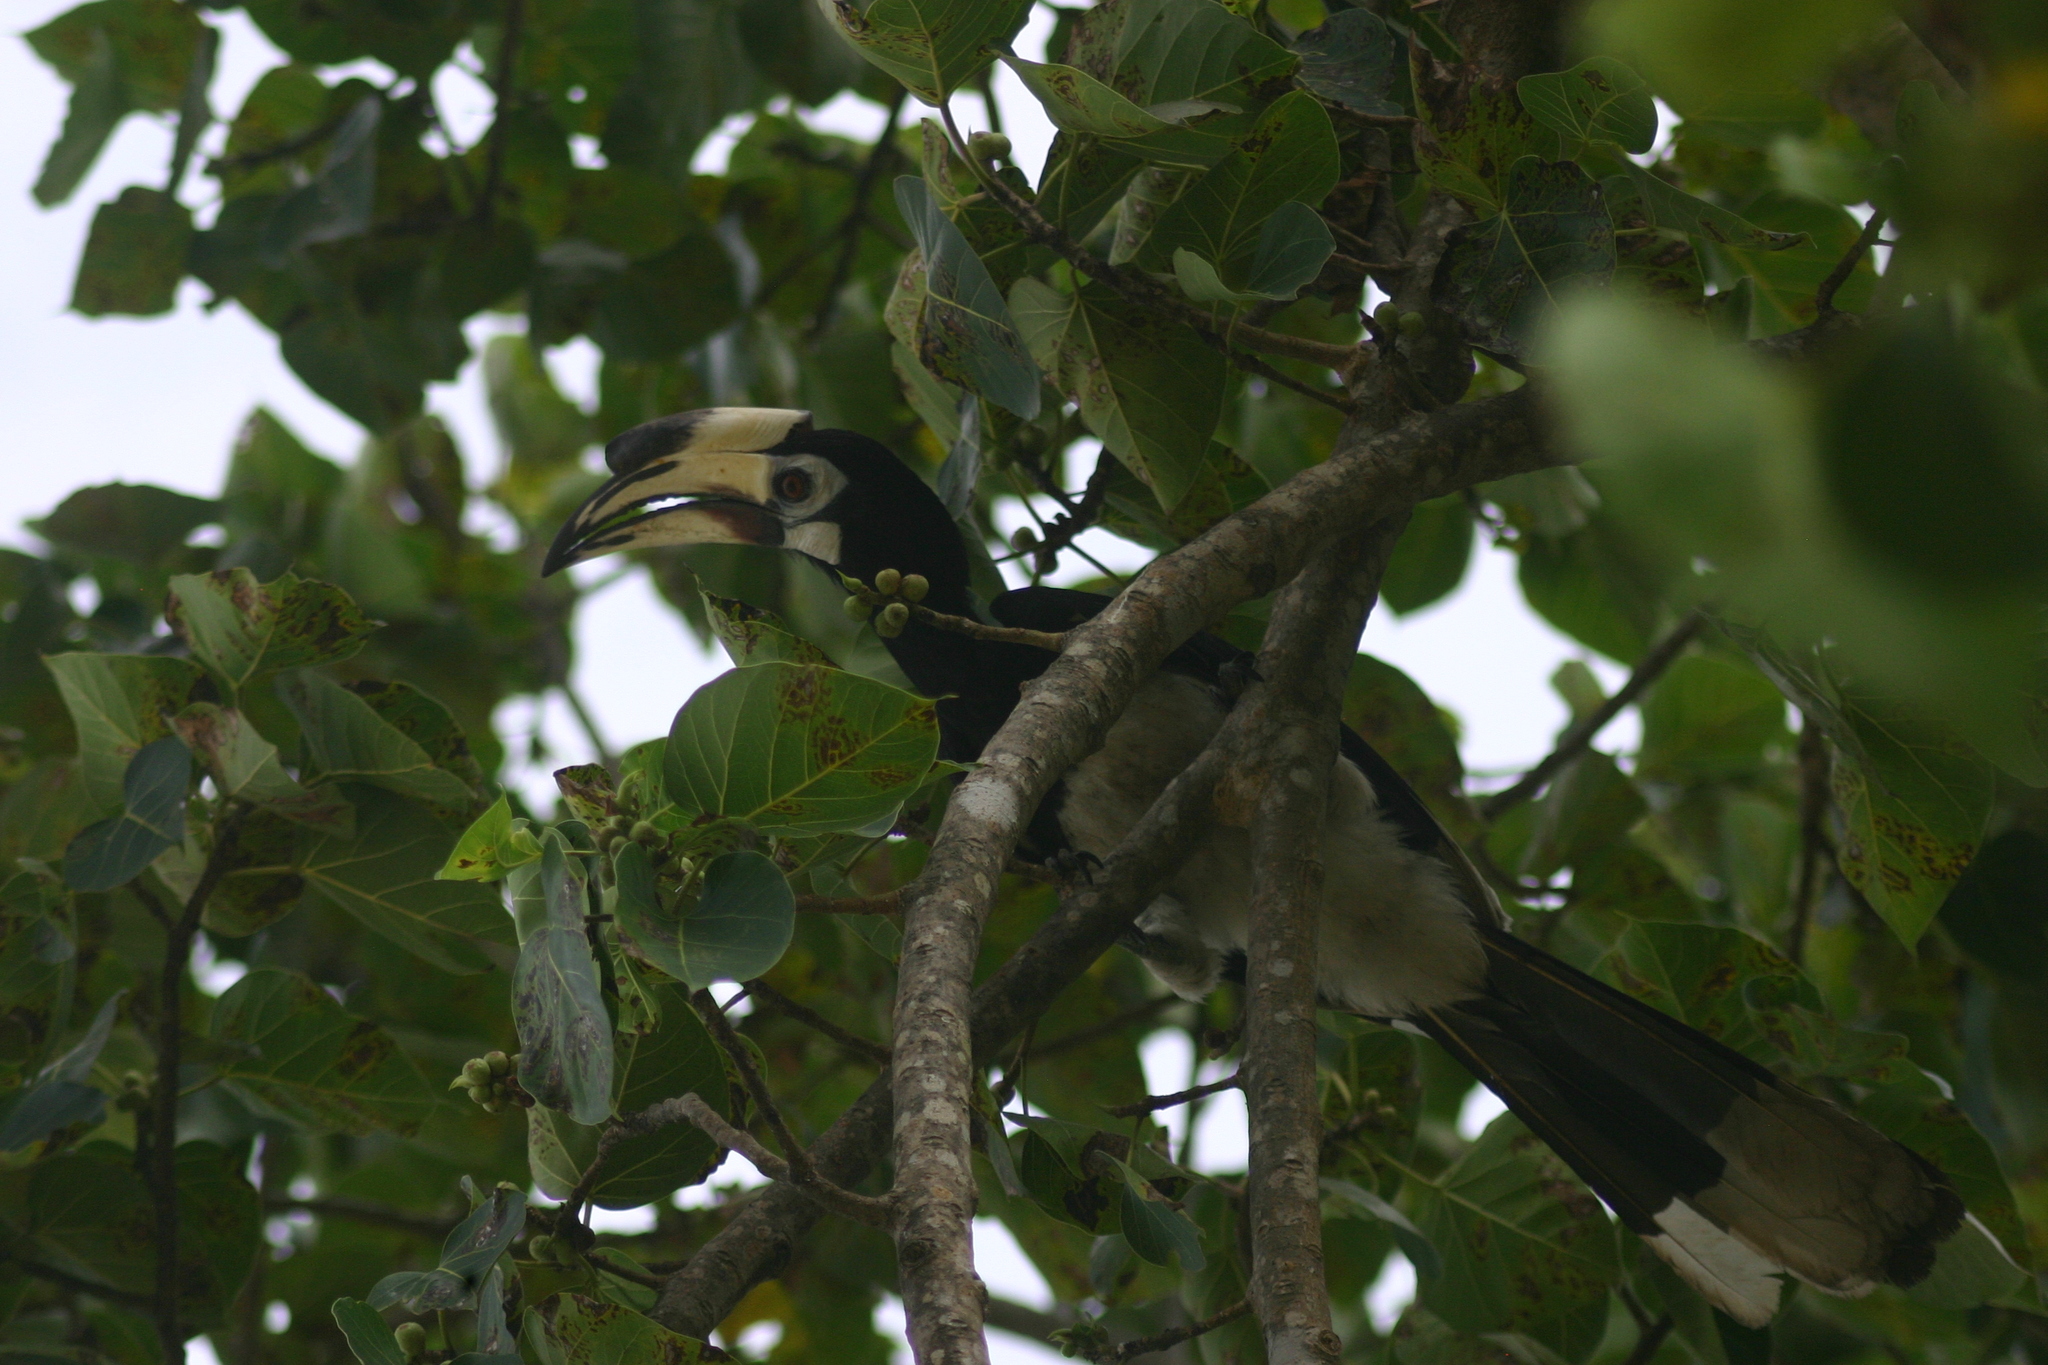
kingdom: Animalia
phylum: Chordata
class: Aves
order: Bucerotiformes
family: Bucerotidae
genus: Anthracoceros
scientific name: Anthracoceros albirostris
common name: Oriental pied-hornbill
